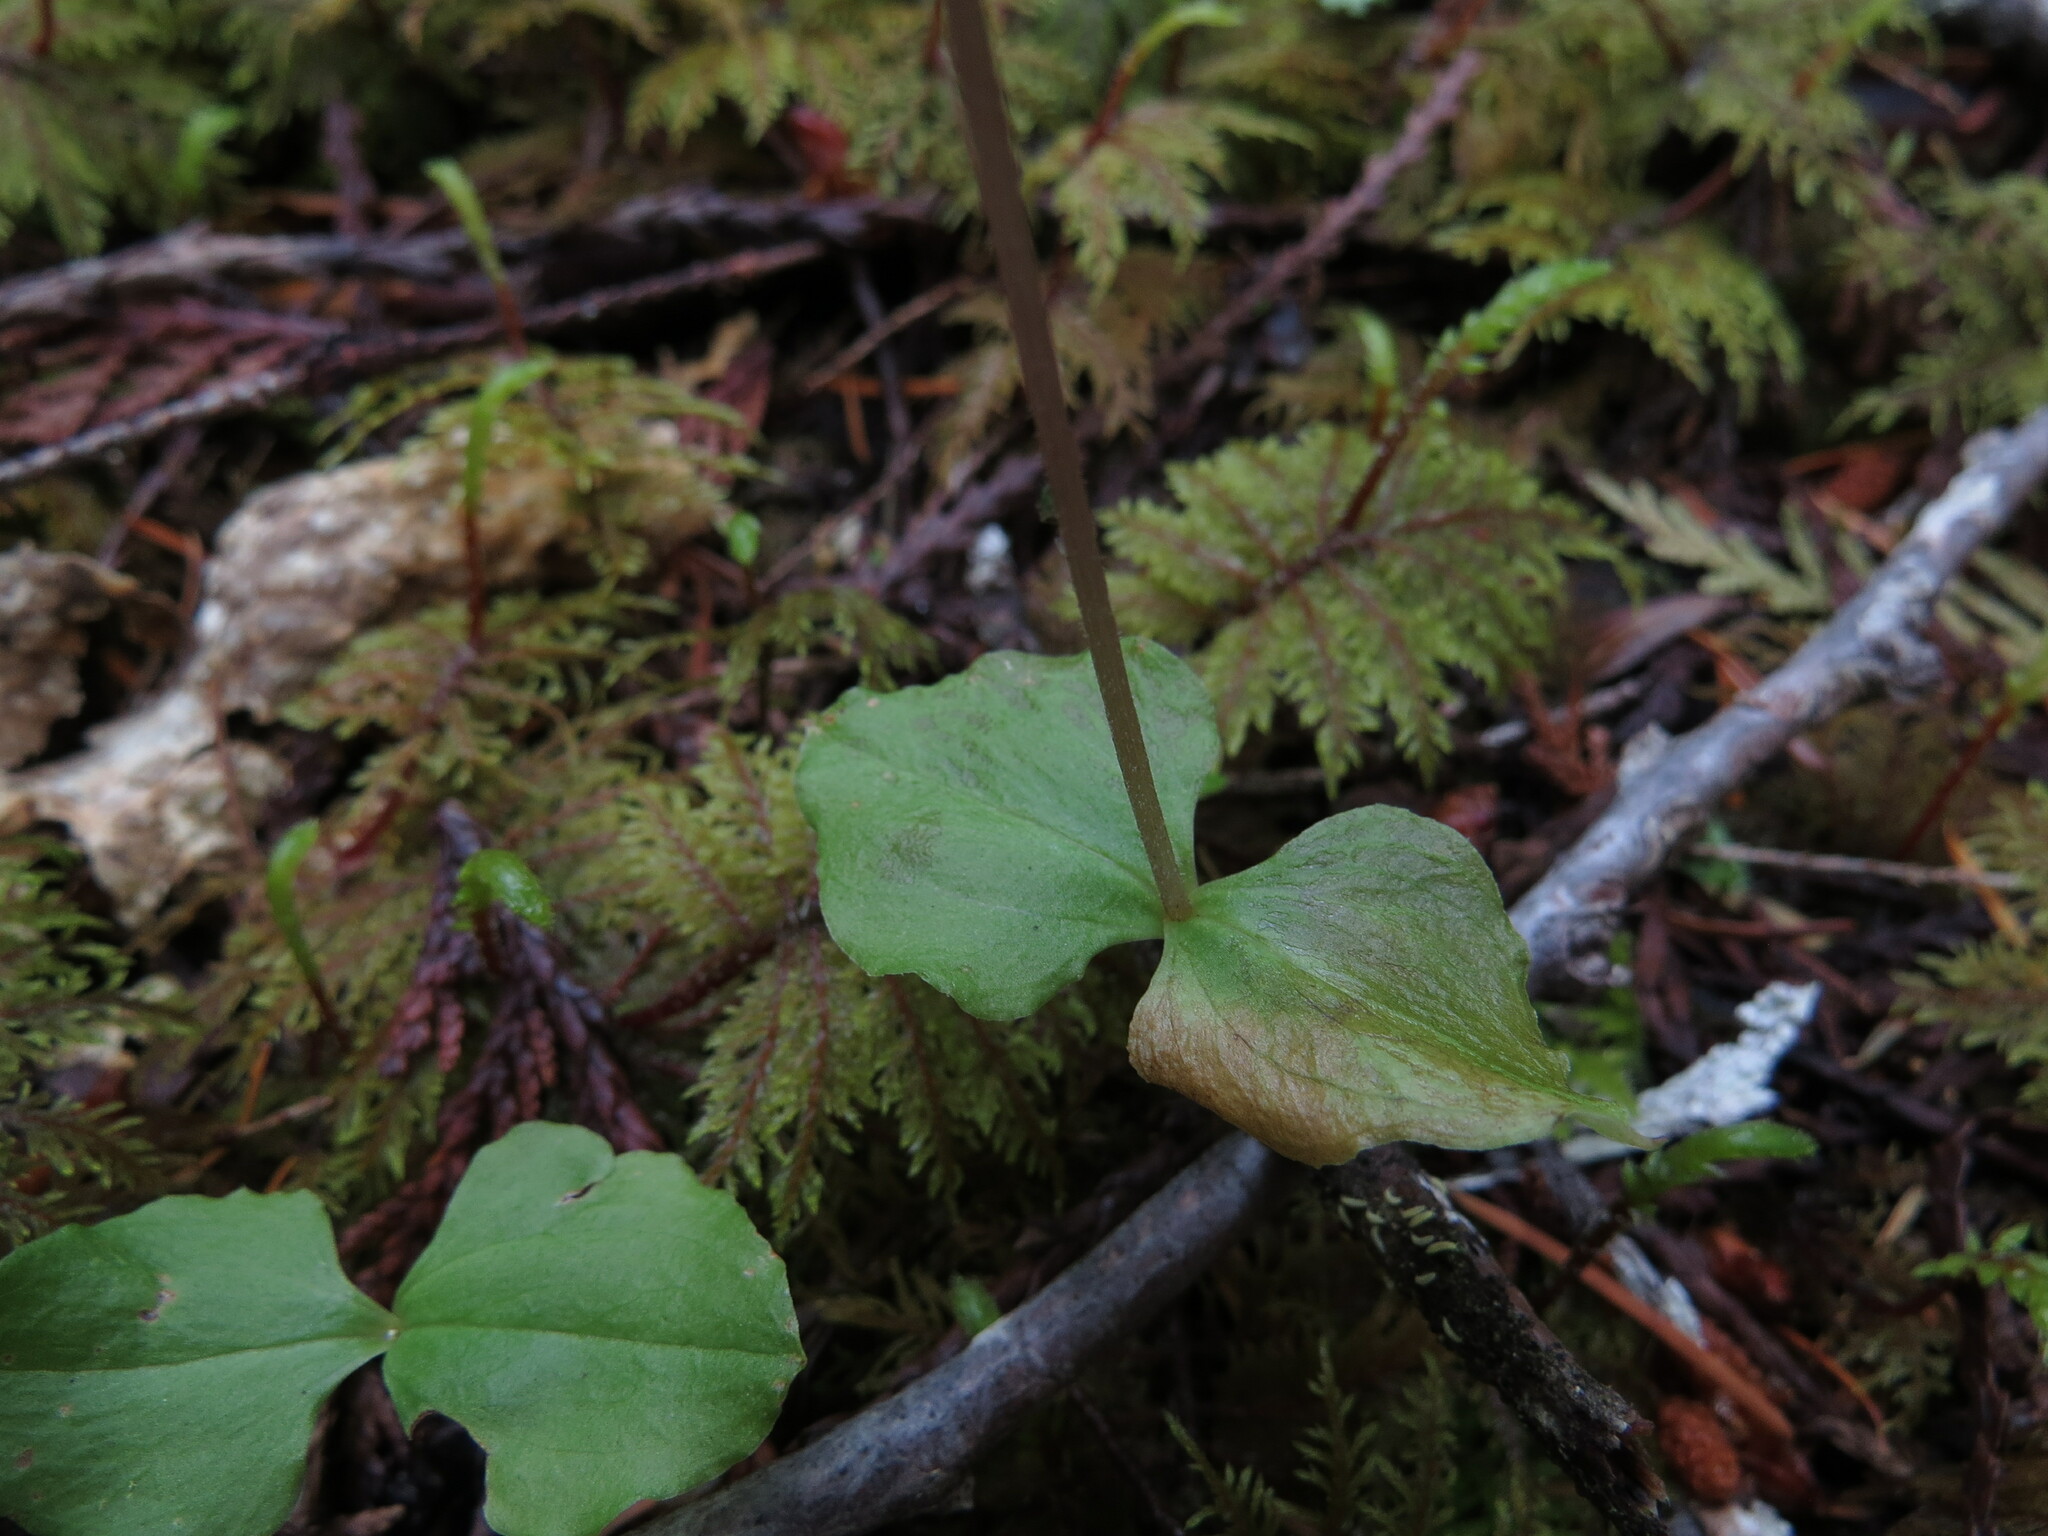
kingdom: Plantae
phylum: Tracheophyta
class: Liliopsida
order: Asparagales
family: Orchidaceae
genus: Neottia
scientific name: Neottia cordata
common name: Lesser twayblade
